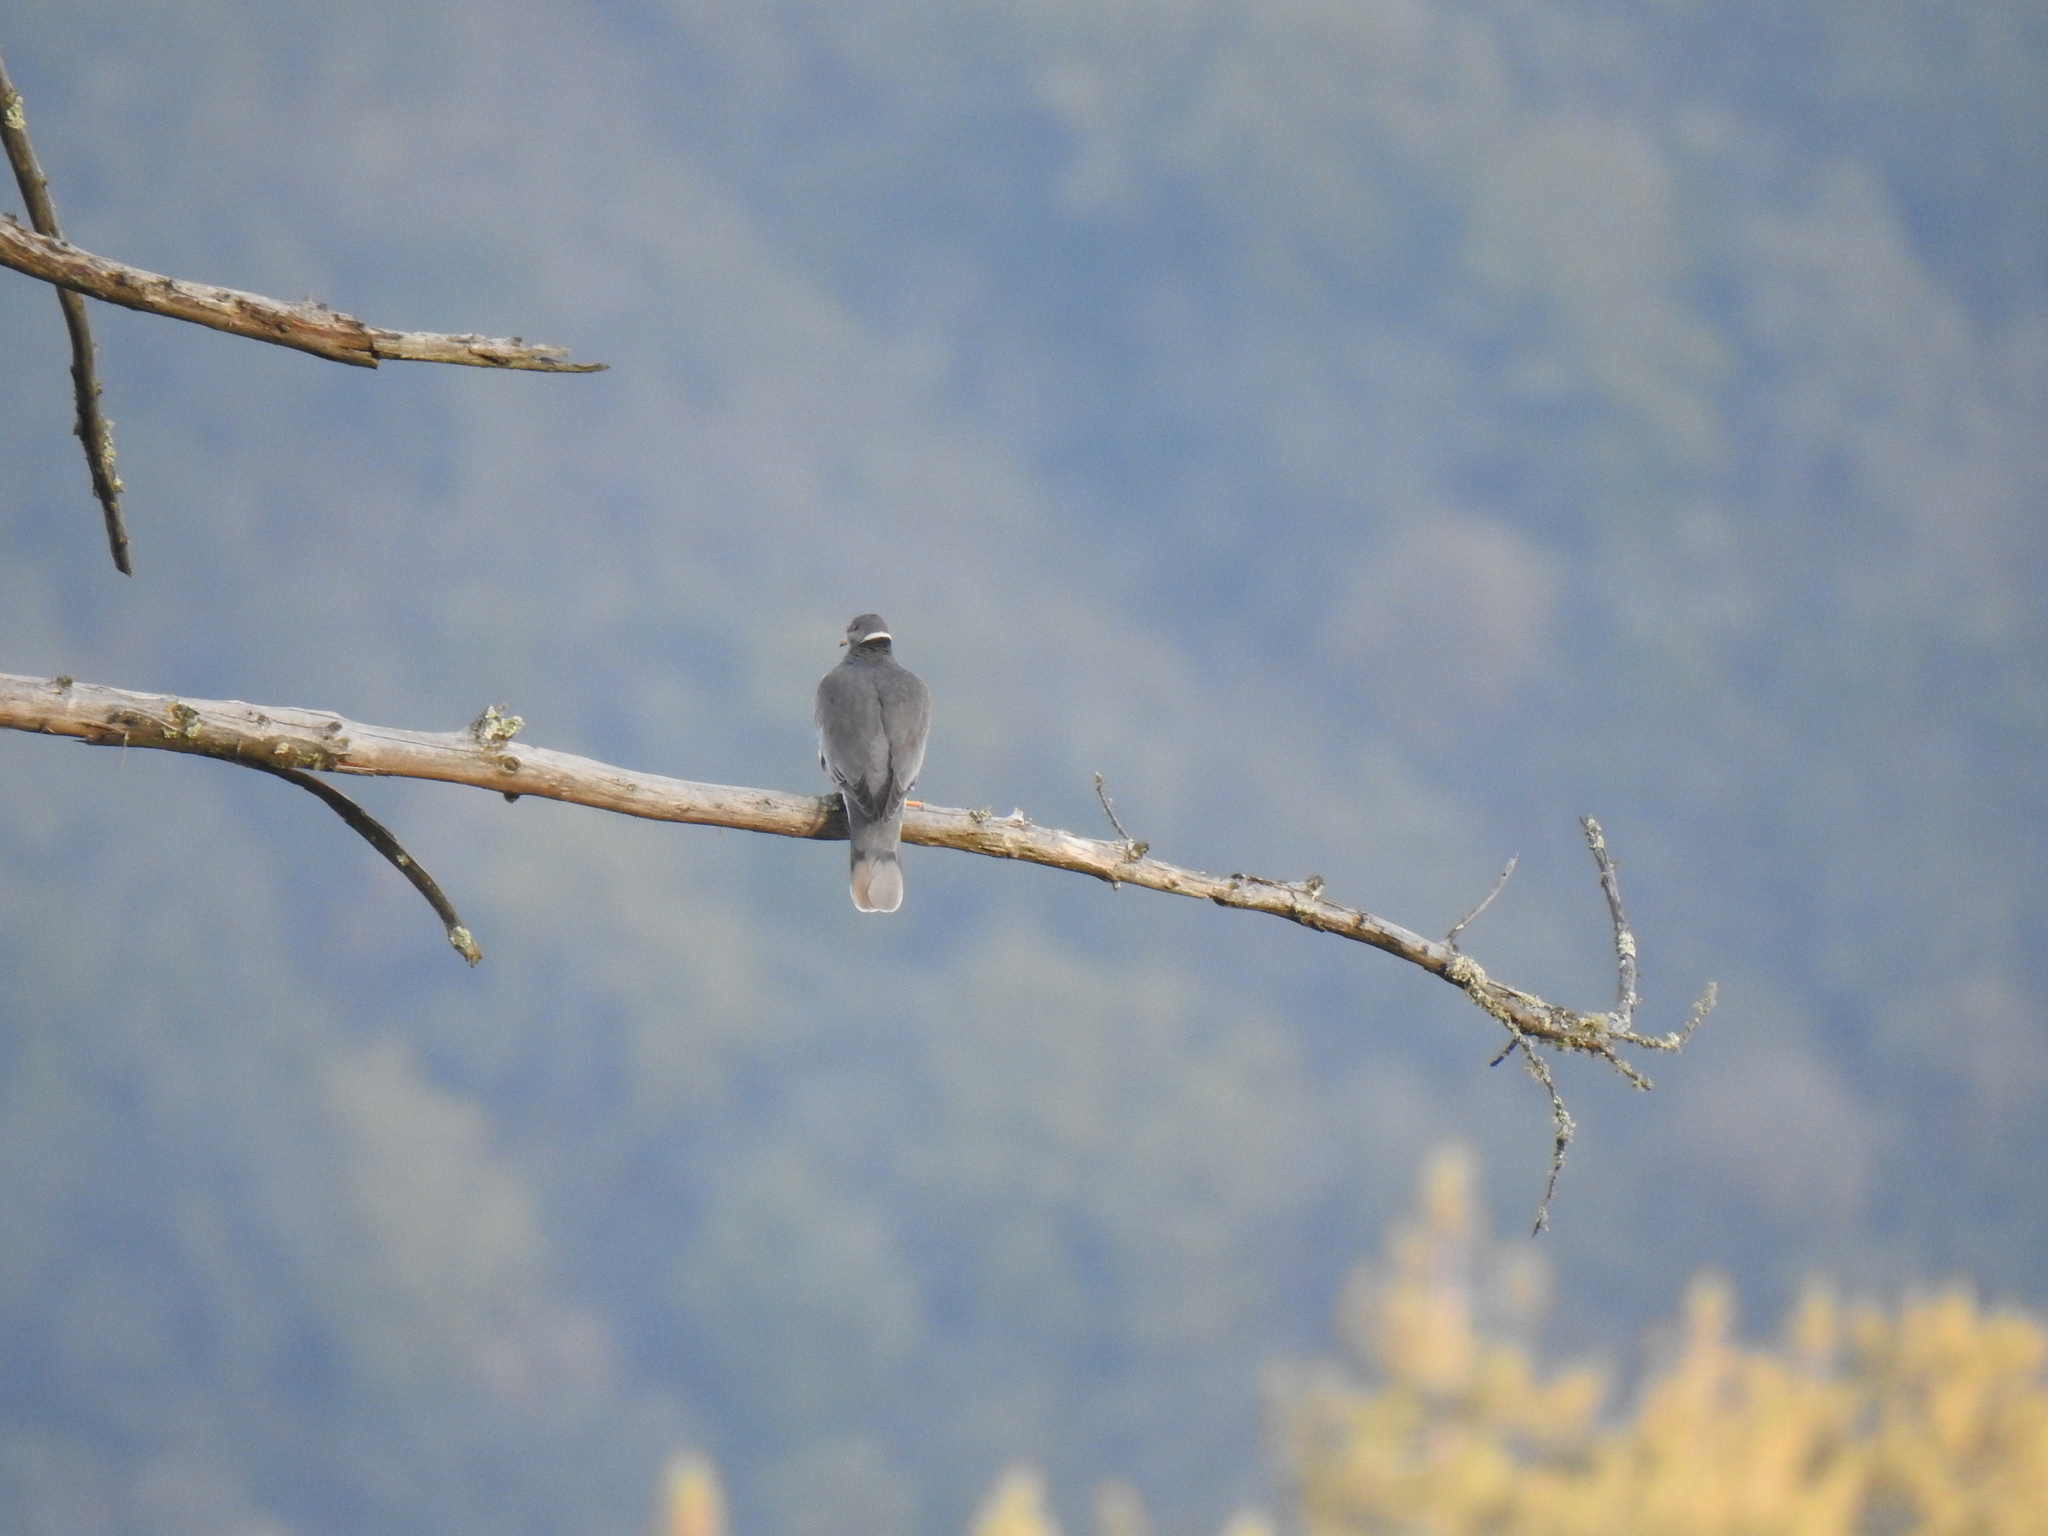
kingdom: Animalia
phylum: Chordata
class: Aves
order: Columbiformes
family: Columbidae
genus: Patagioenas
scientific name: Patagioenas fasciata
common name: Band-tailed pigeon
